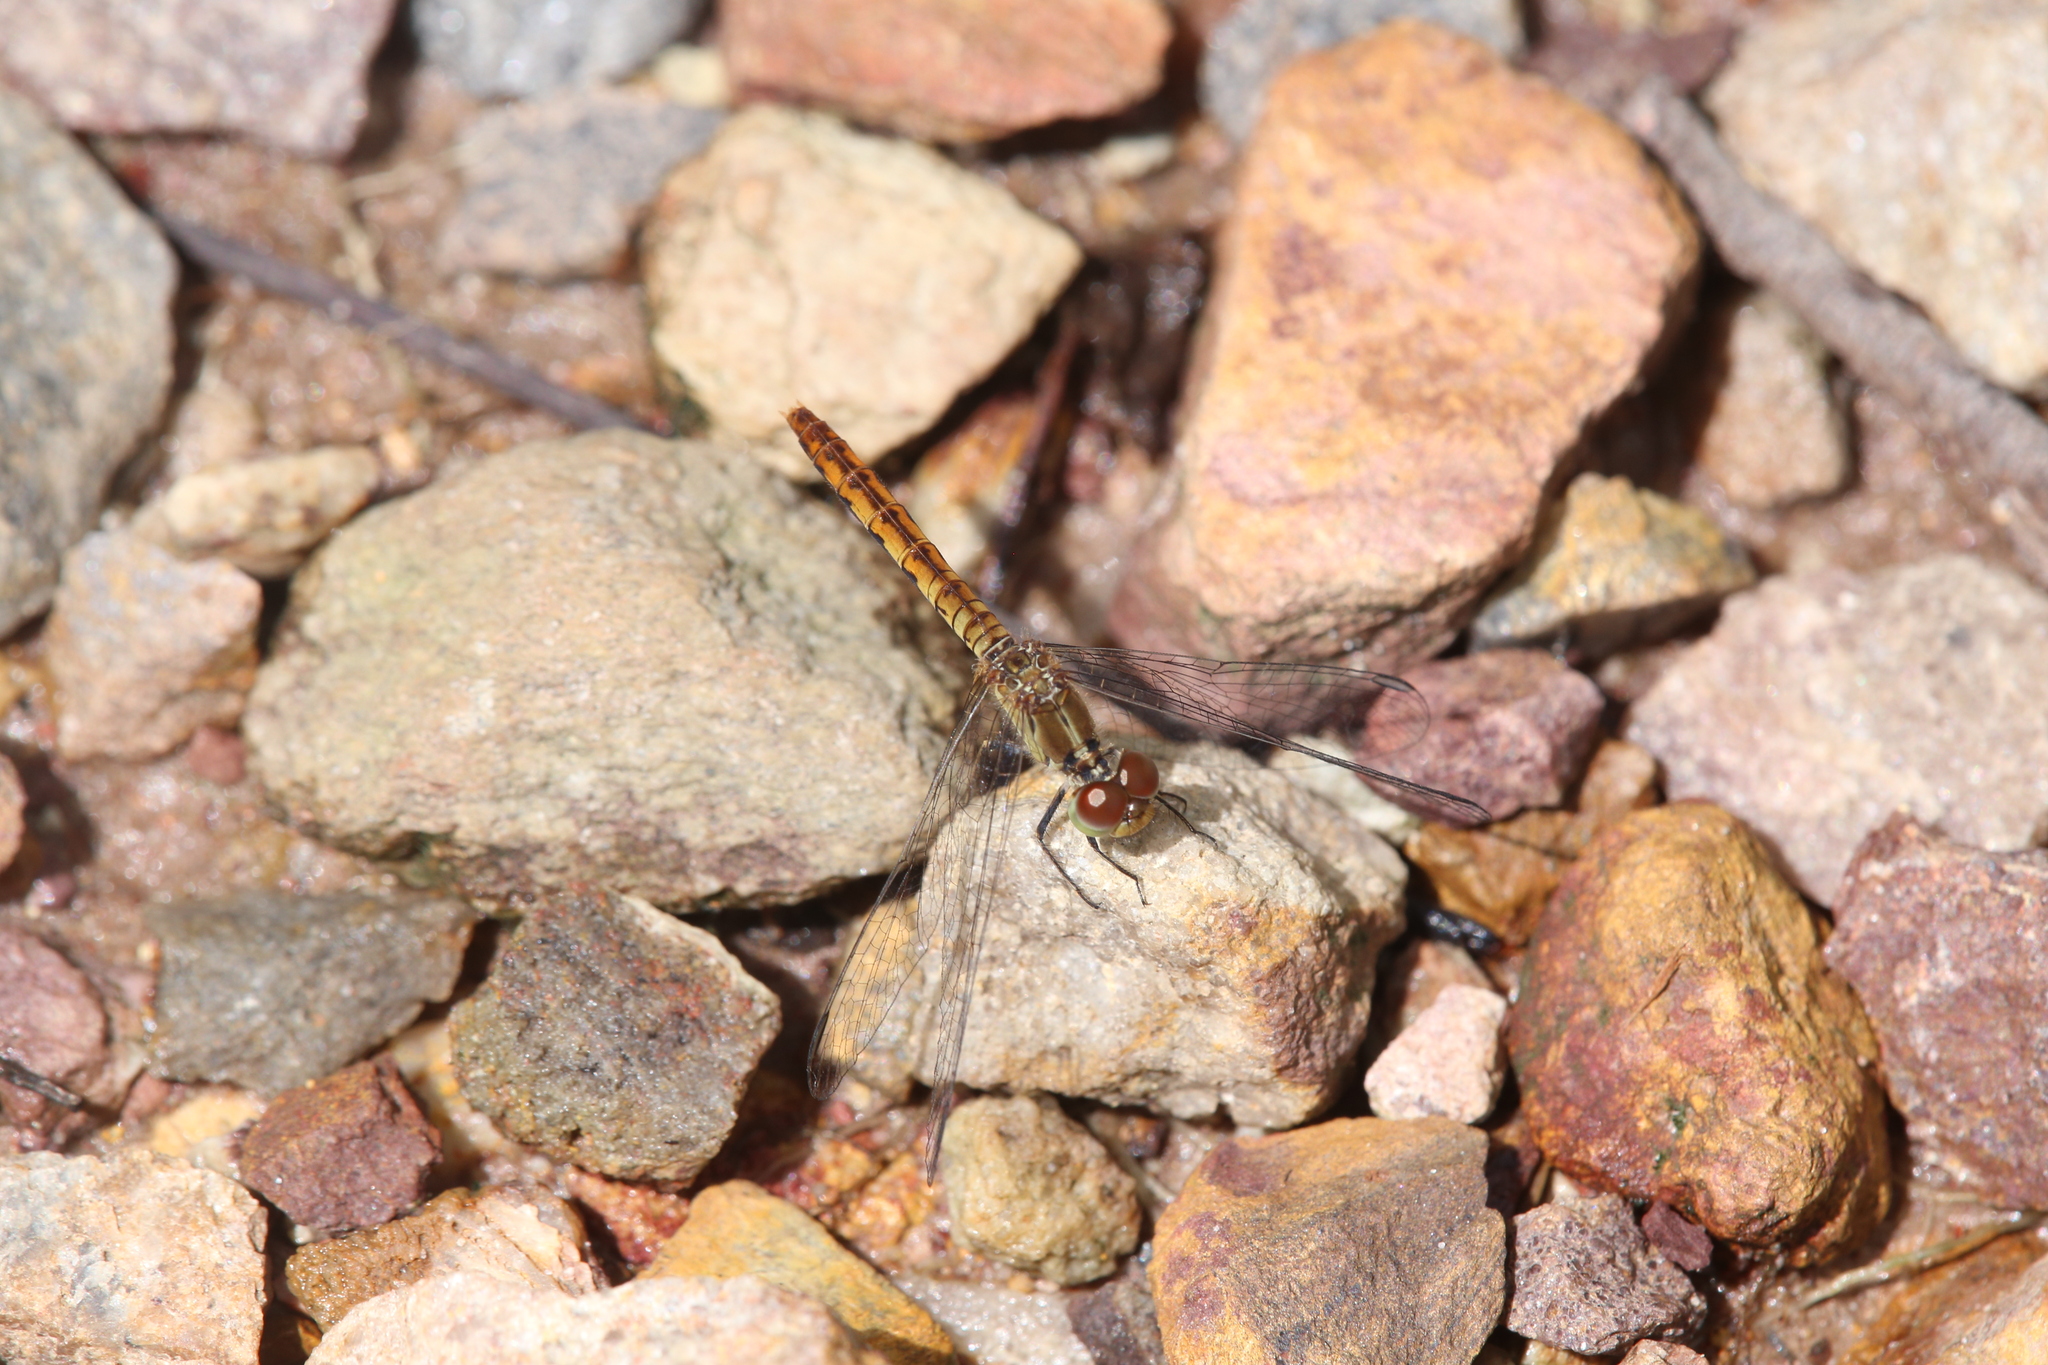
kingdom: Animalia
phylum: Arthropoda
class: Insecta
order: Odonata
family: Libellulidae
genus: Nannodiplax
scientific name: Nannodiplax rubra
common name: Pygmy percher
